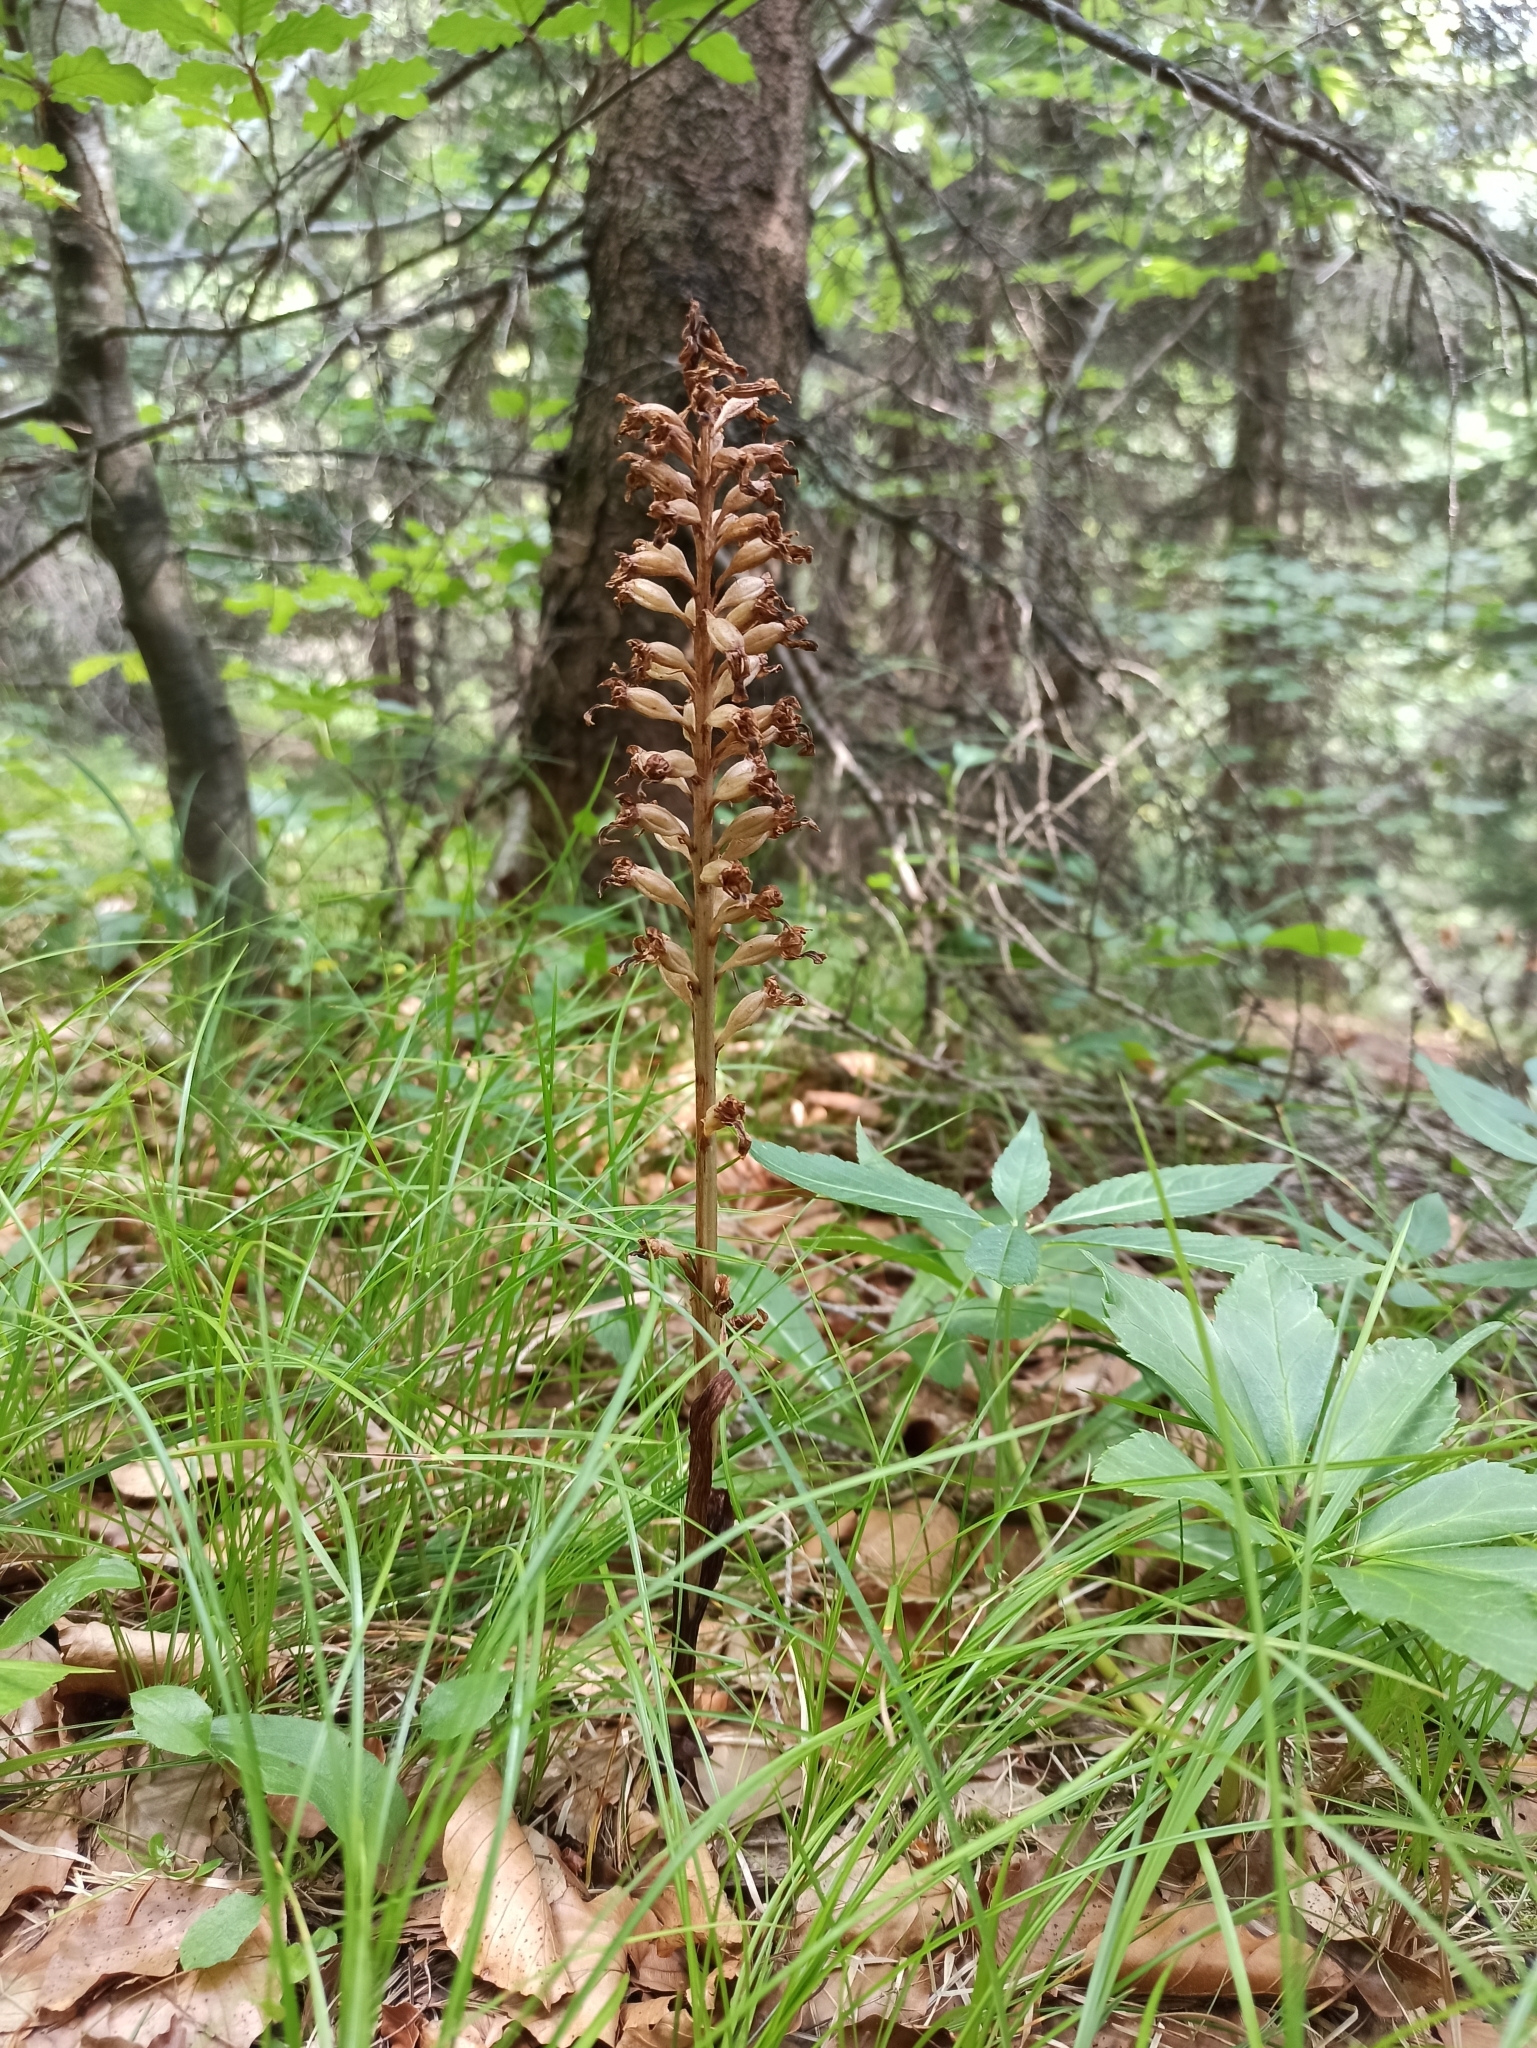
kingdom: Plantae
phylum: Tracheophyta
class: Liliopsida
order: Asparagales
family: Orchidaceae
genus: Neottia
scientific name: Neottia nidus-avis
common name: Bird's-nest orchid
